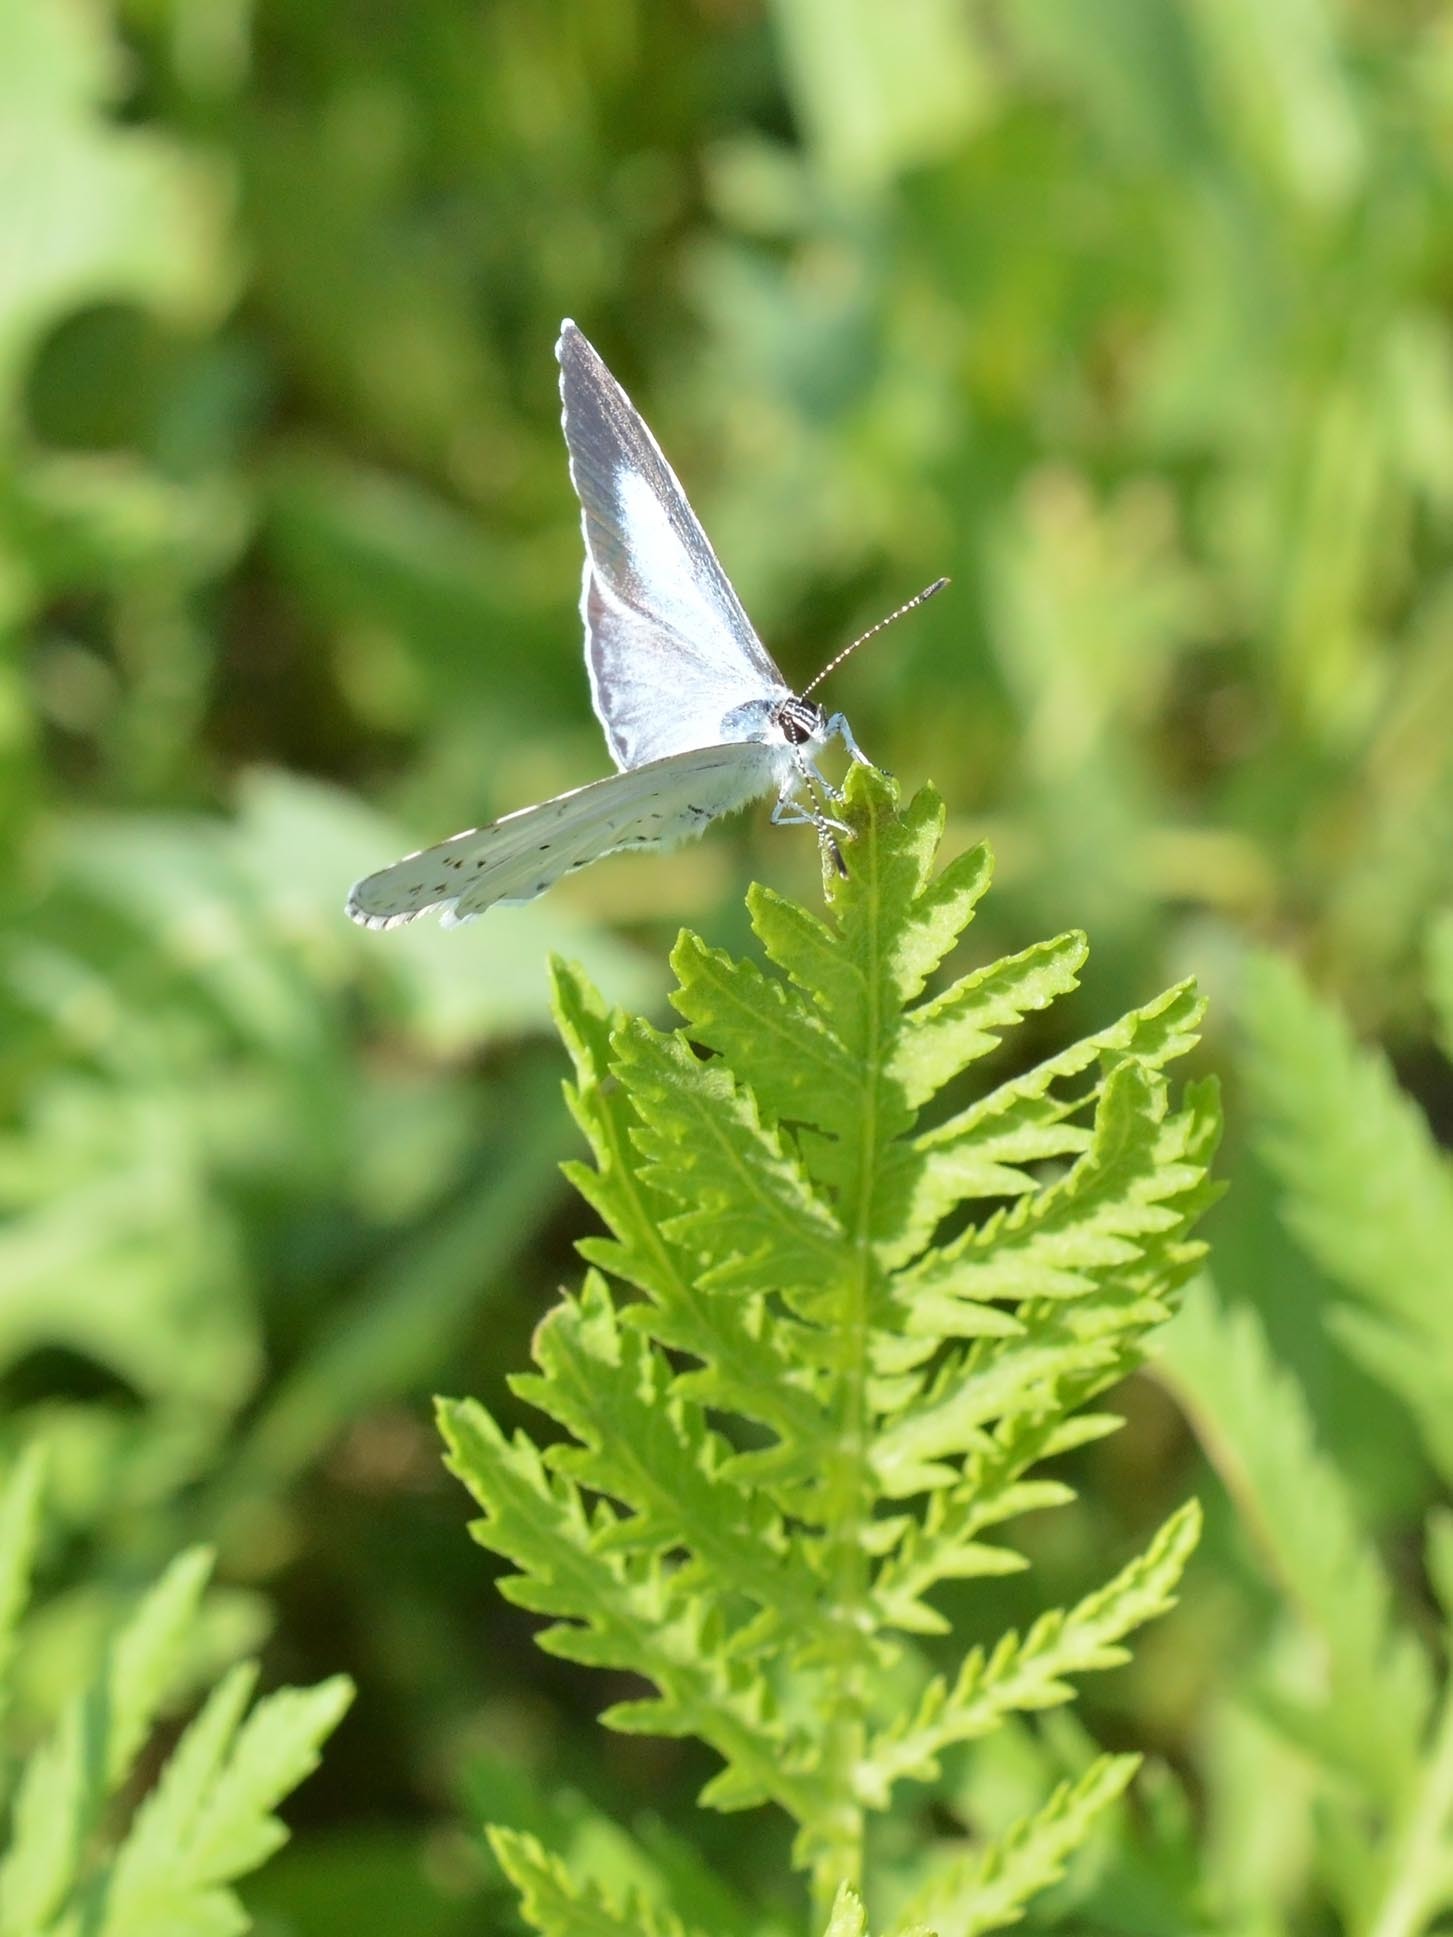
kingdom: Animalia
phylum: Arthropoda
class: Insecta
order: Lepidoptera
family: Lycaenidae
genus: Celastrina
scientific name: Celastrina argiolus
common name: Holly blue
